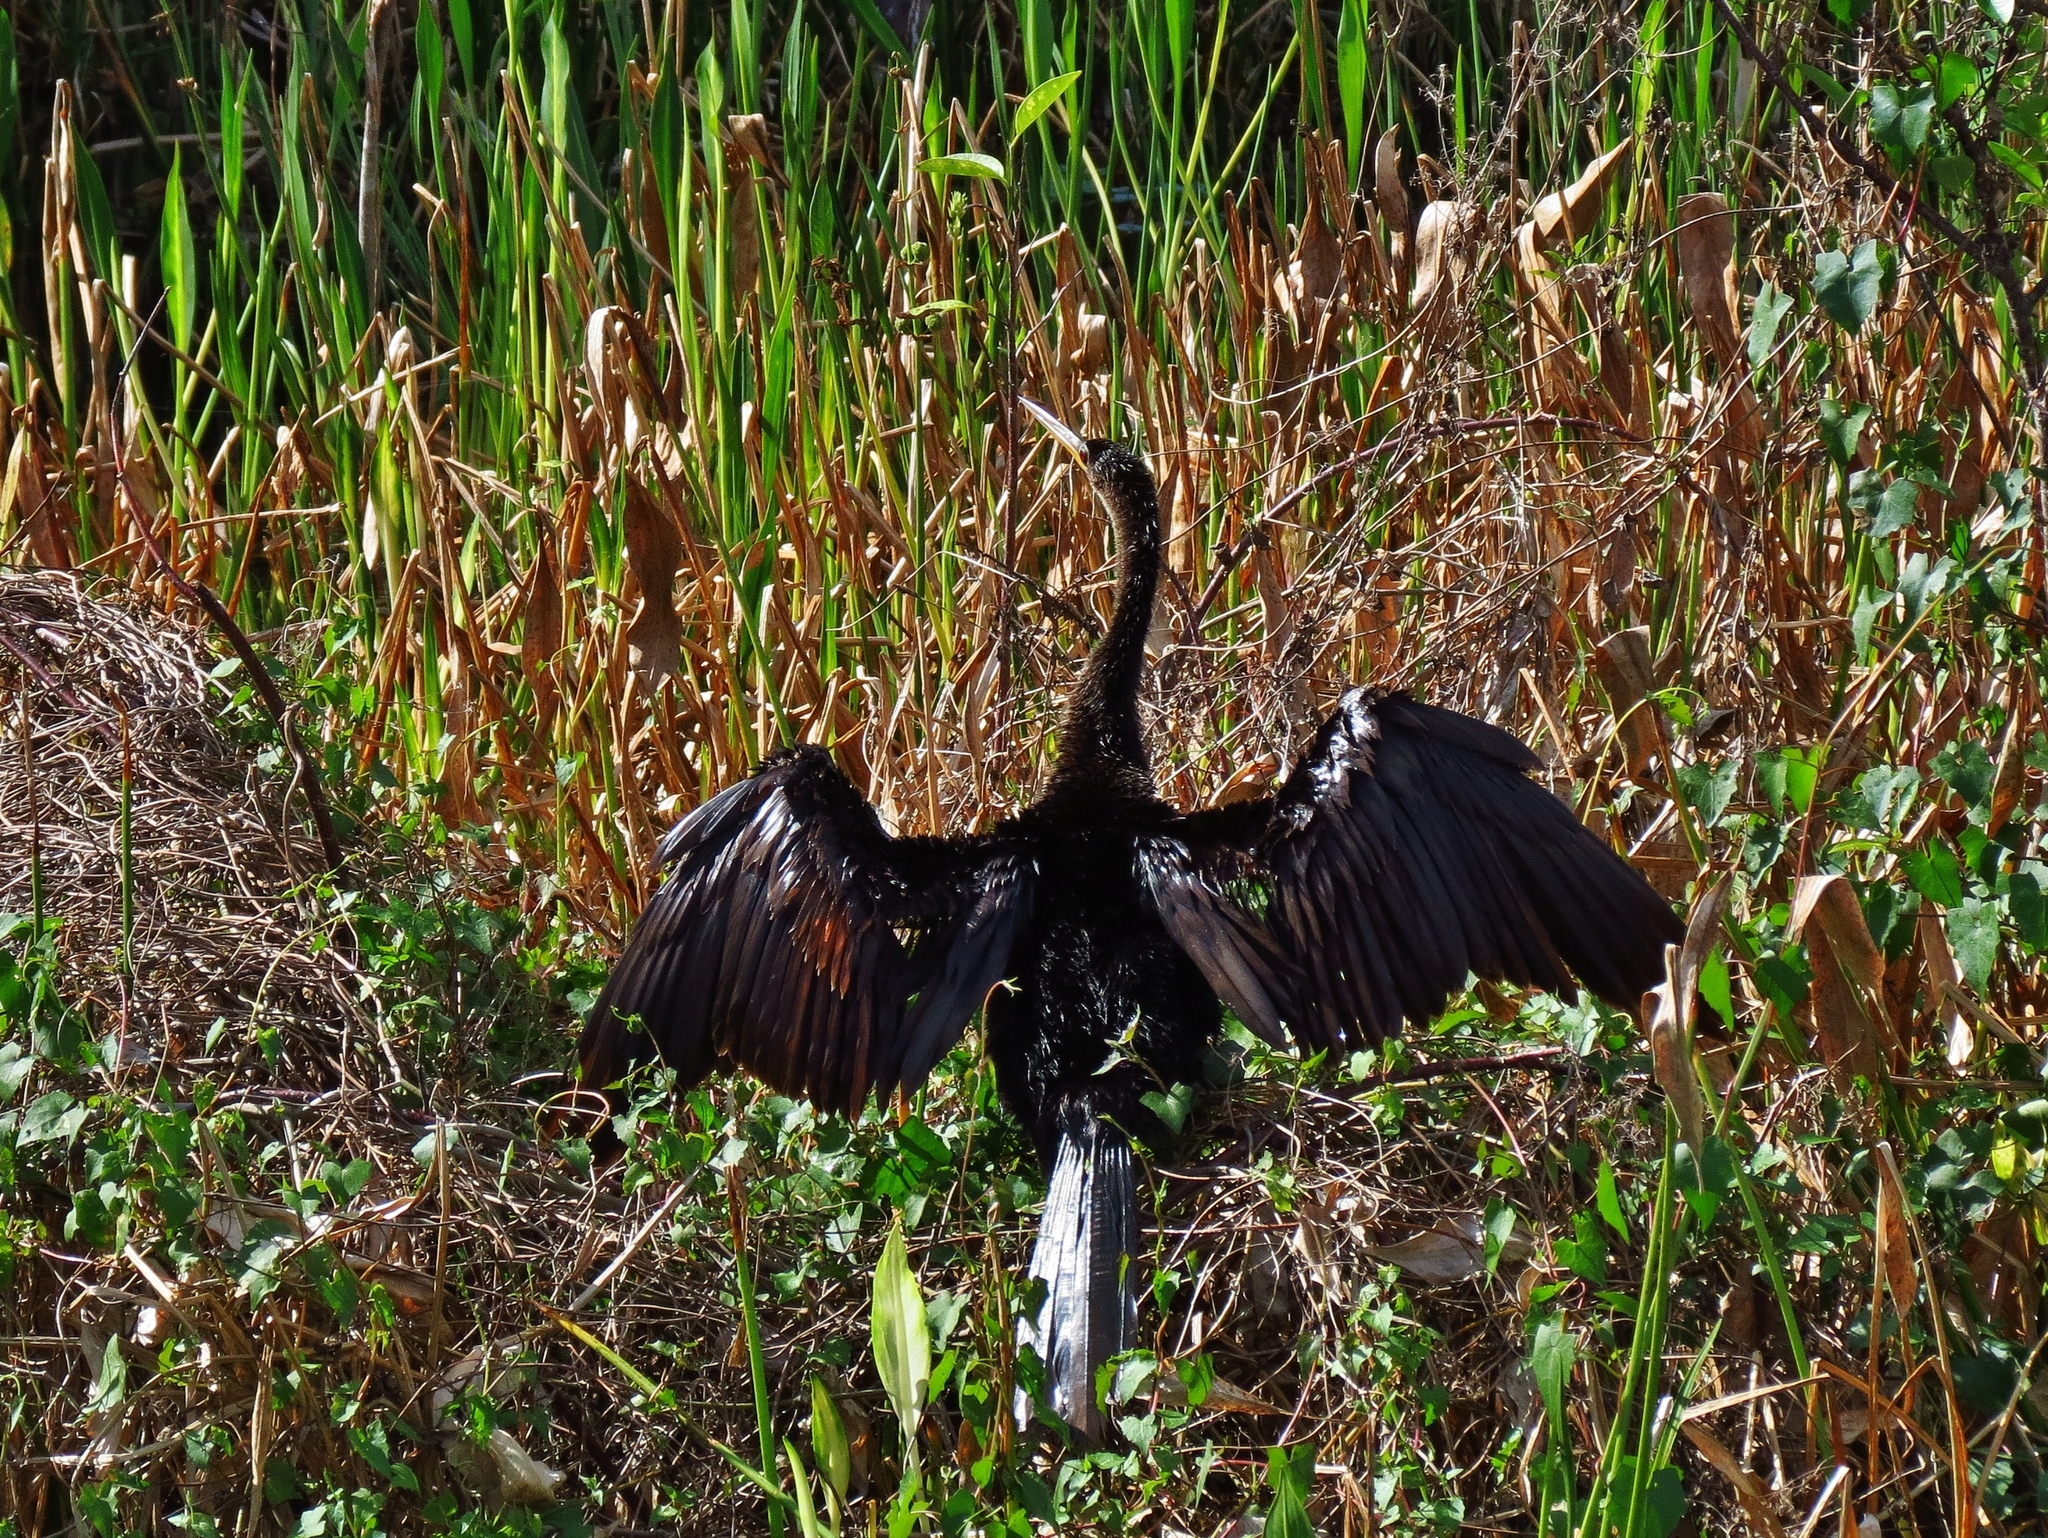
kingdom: Animalia
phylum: Chordata
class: Aves
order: Suliformes
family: Anhingidae
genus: Anhinga
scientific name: Anhinga anhinga
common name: Anhinga
